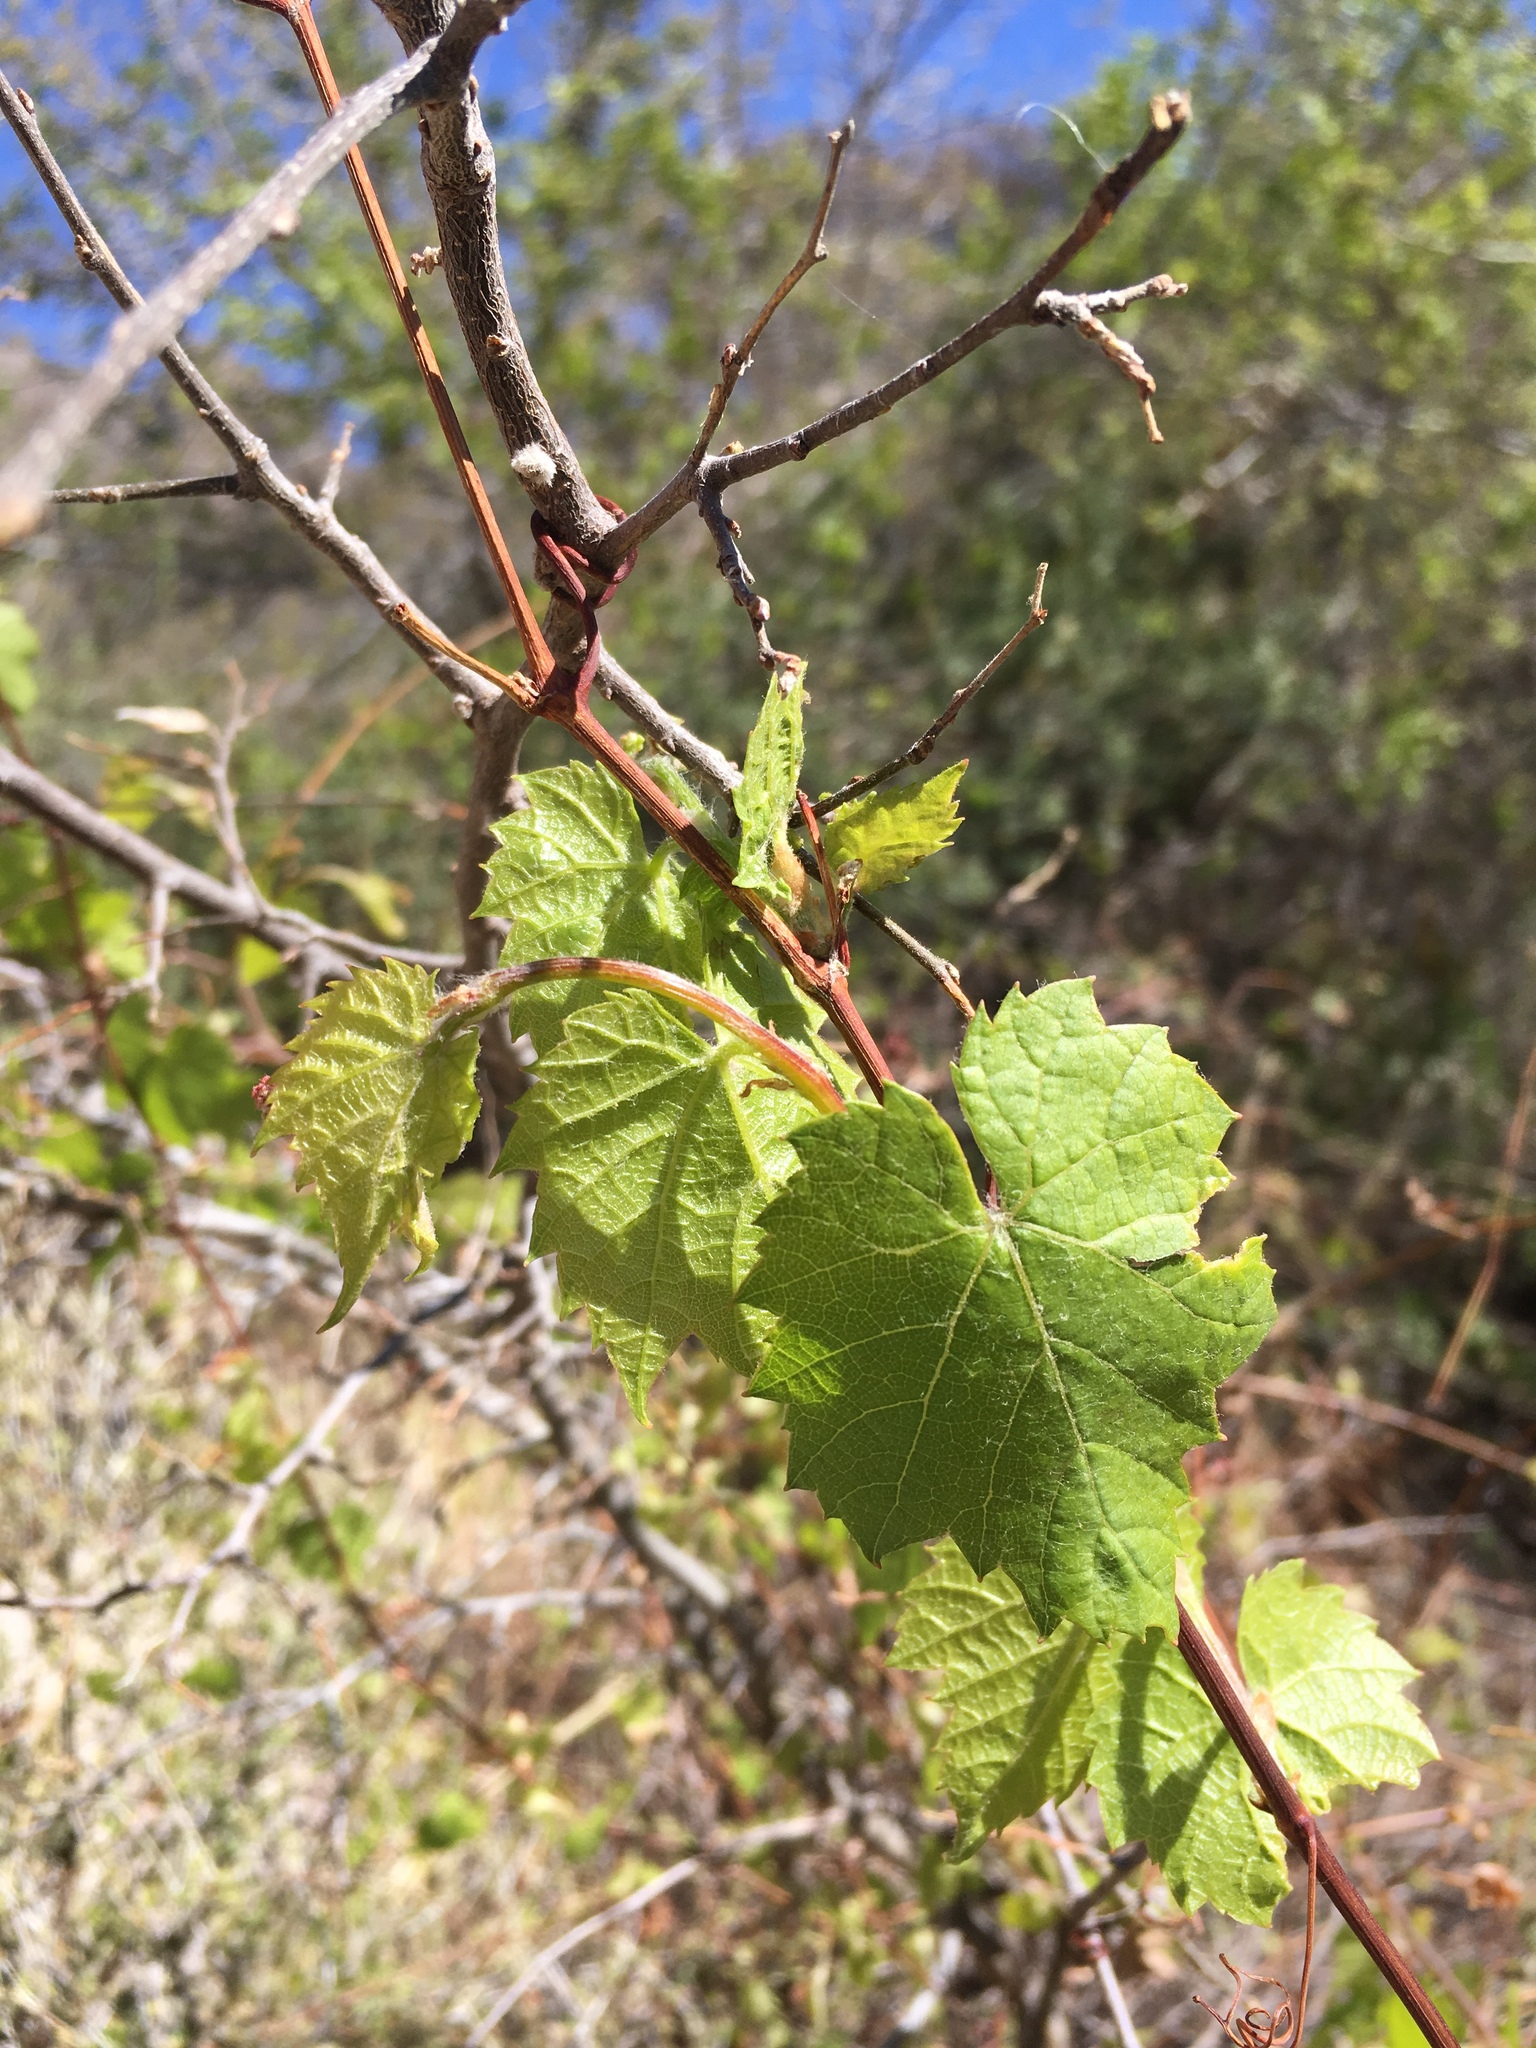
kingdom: Plantae
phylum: Tracheophyta
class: Magnoliopsida
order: Vitales
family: Vitaceae
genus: Vitis
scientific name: Vitis arizonica
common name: Canyon grape
